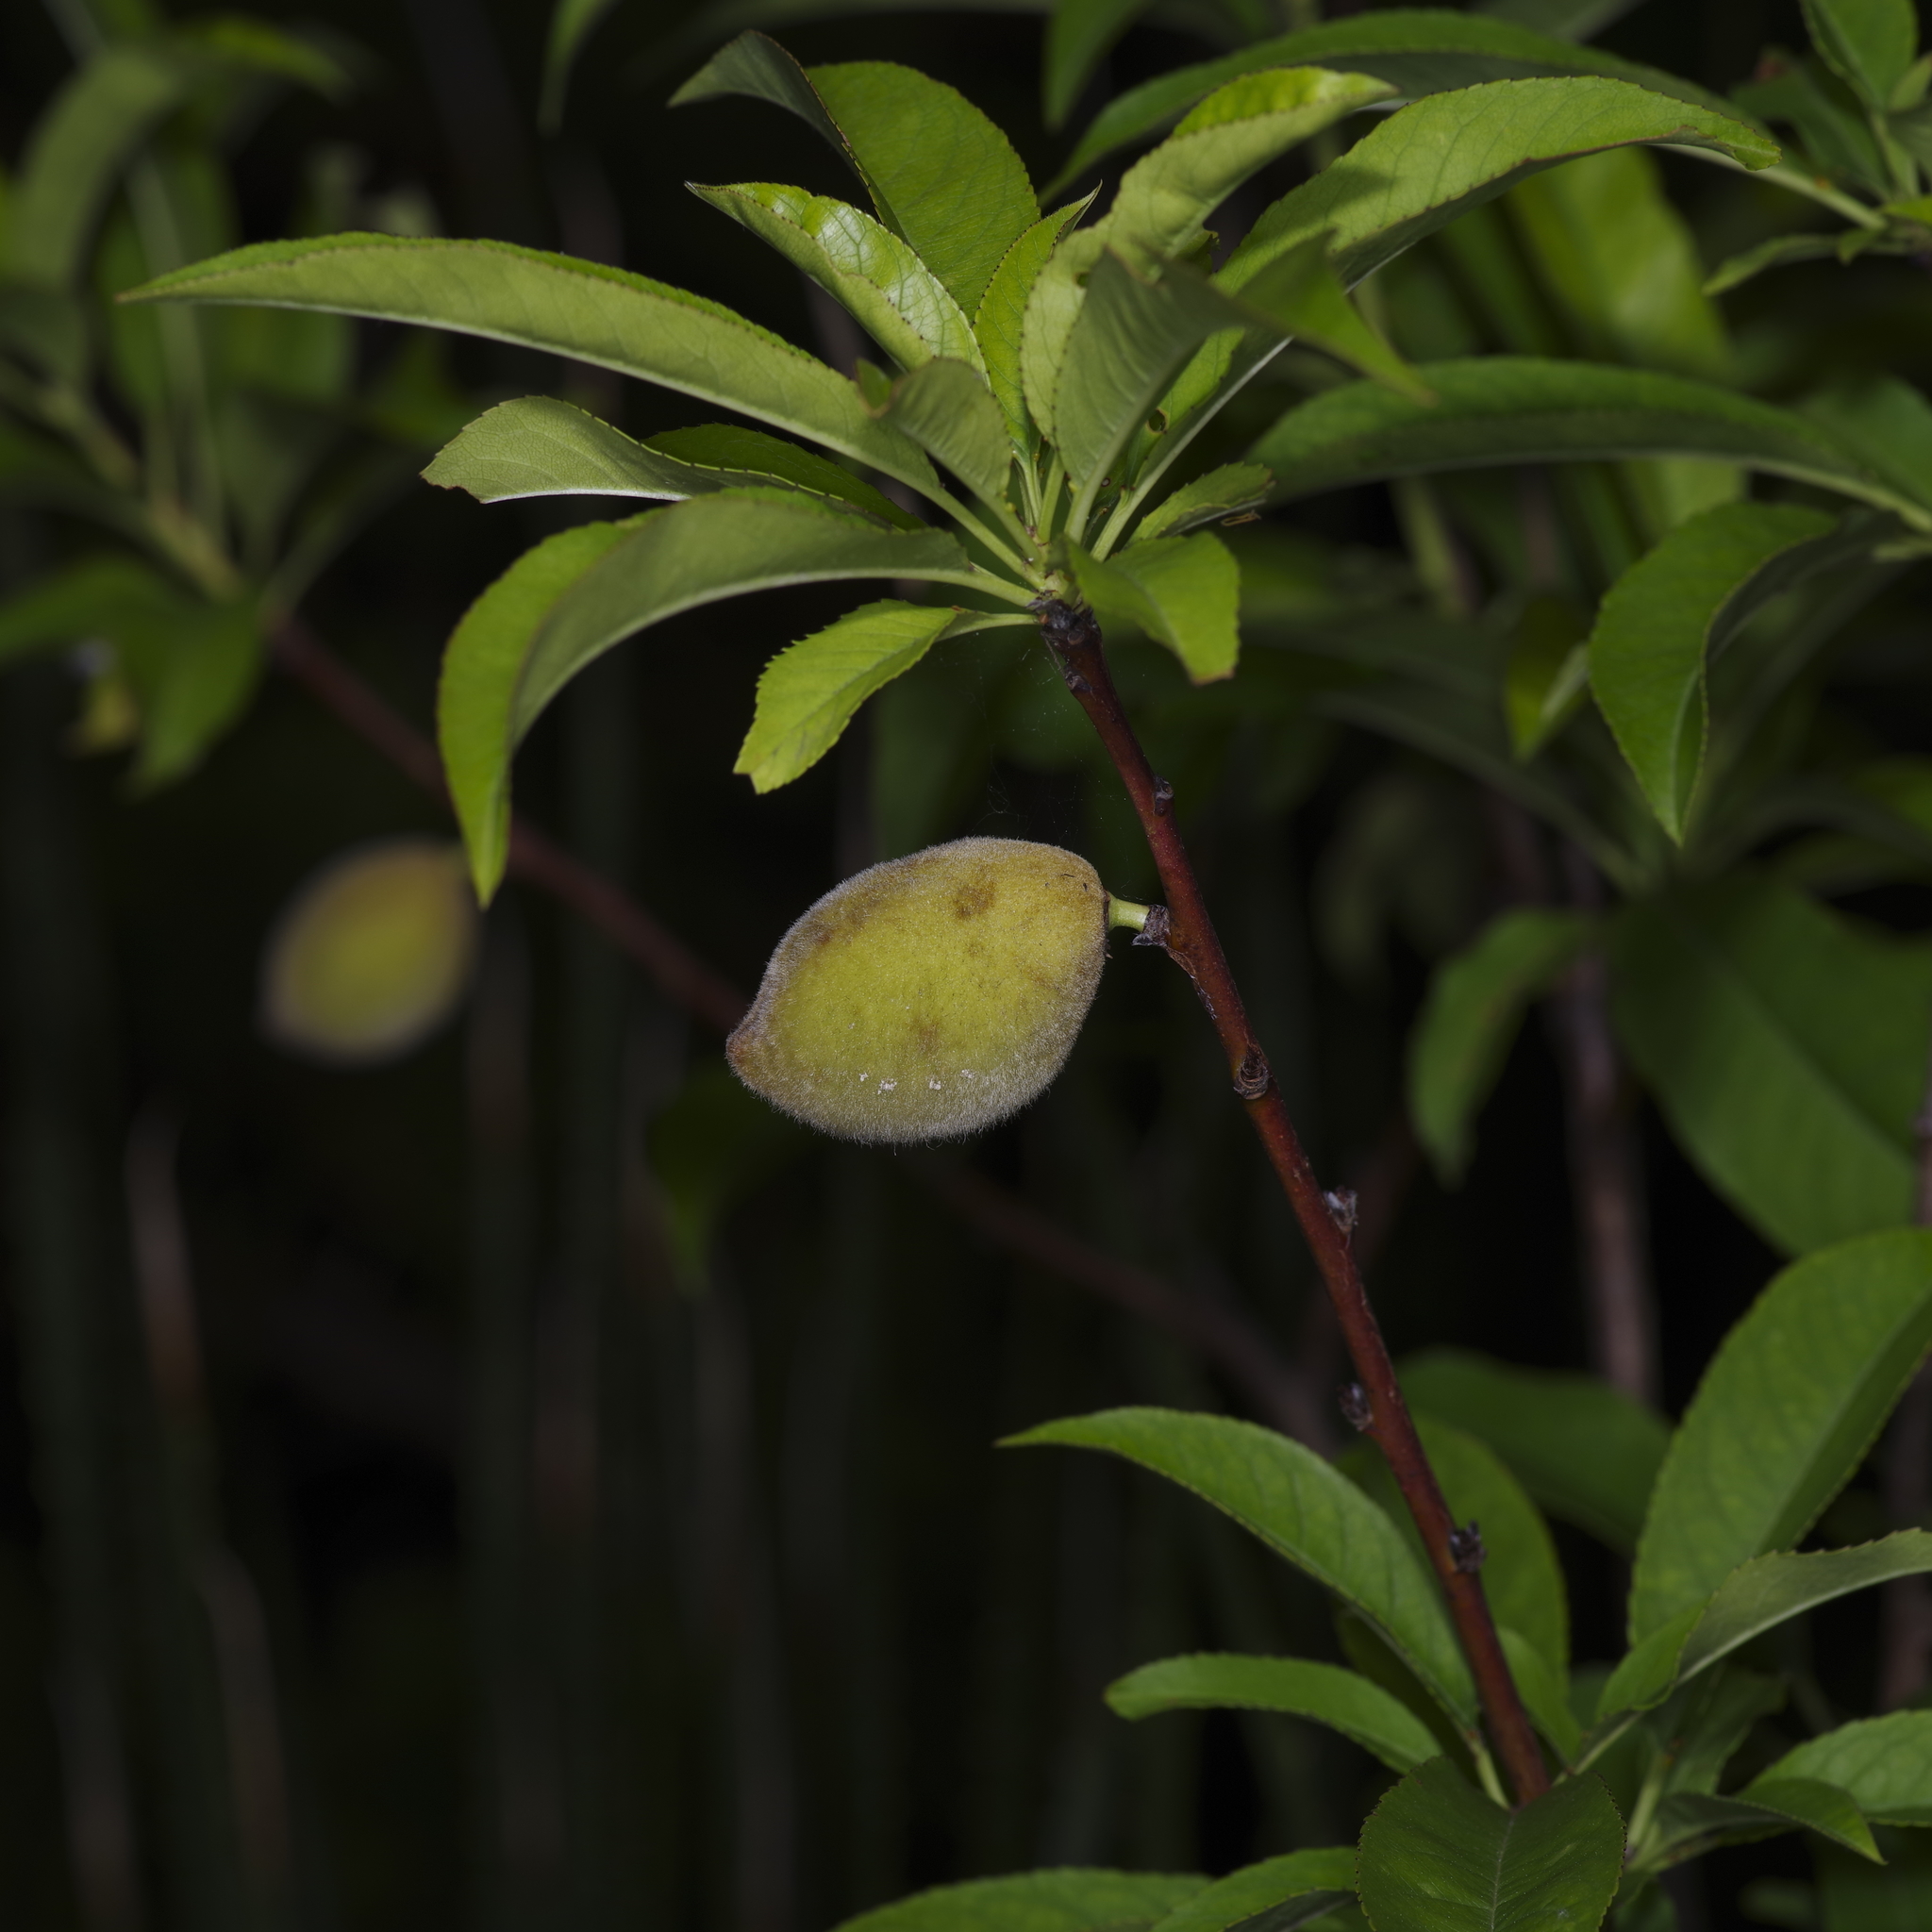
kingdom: Plantae
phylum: Tracheophyta
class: Magnoliopsida
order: Rosales
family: Rosaceae
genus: Prunus
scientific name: Prunus persica
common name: Peach
